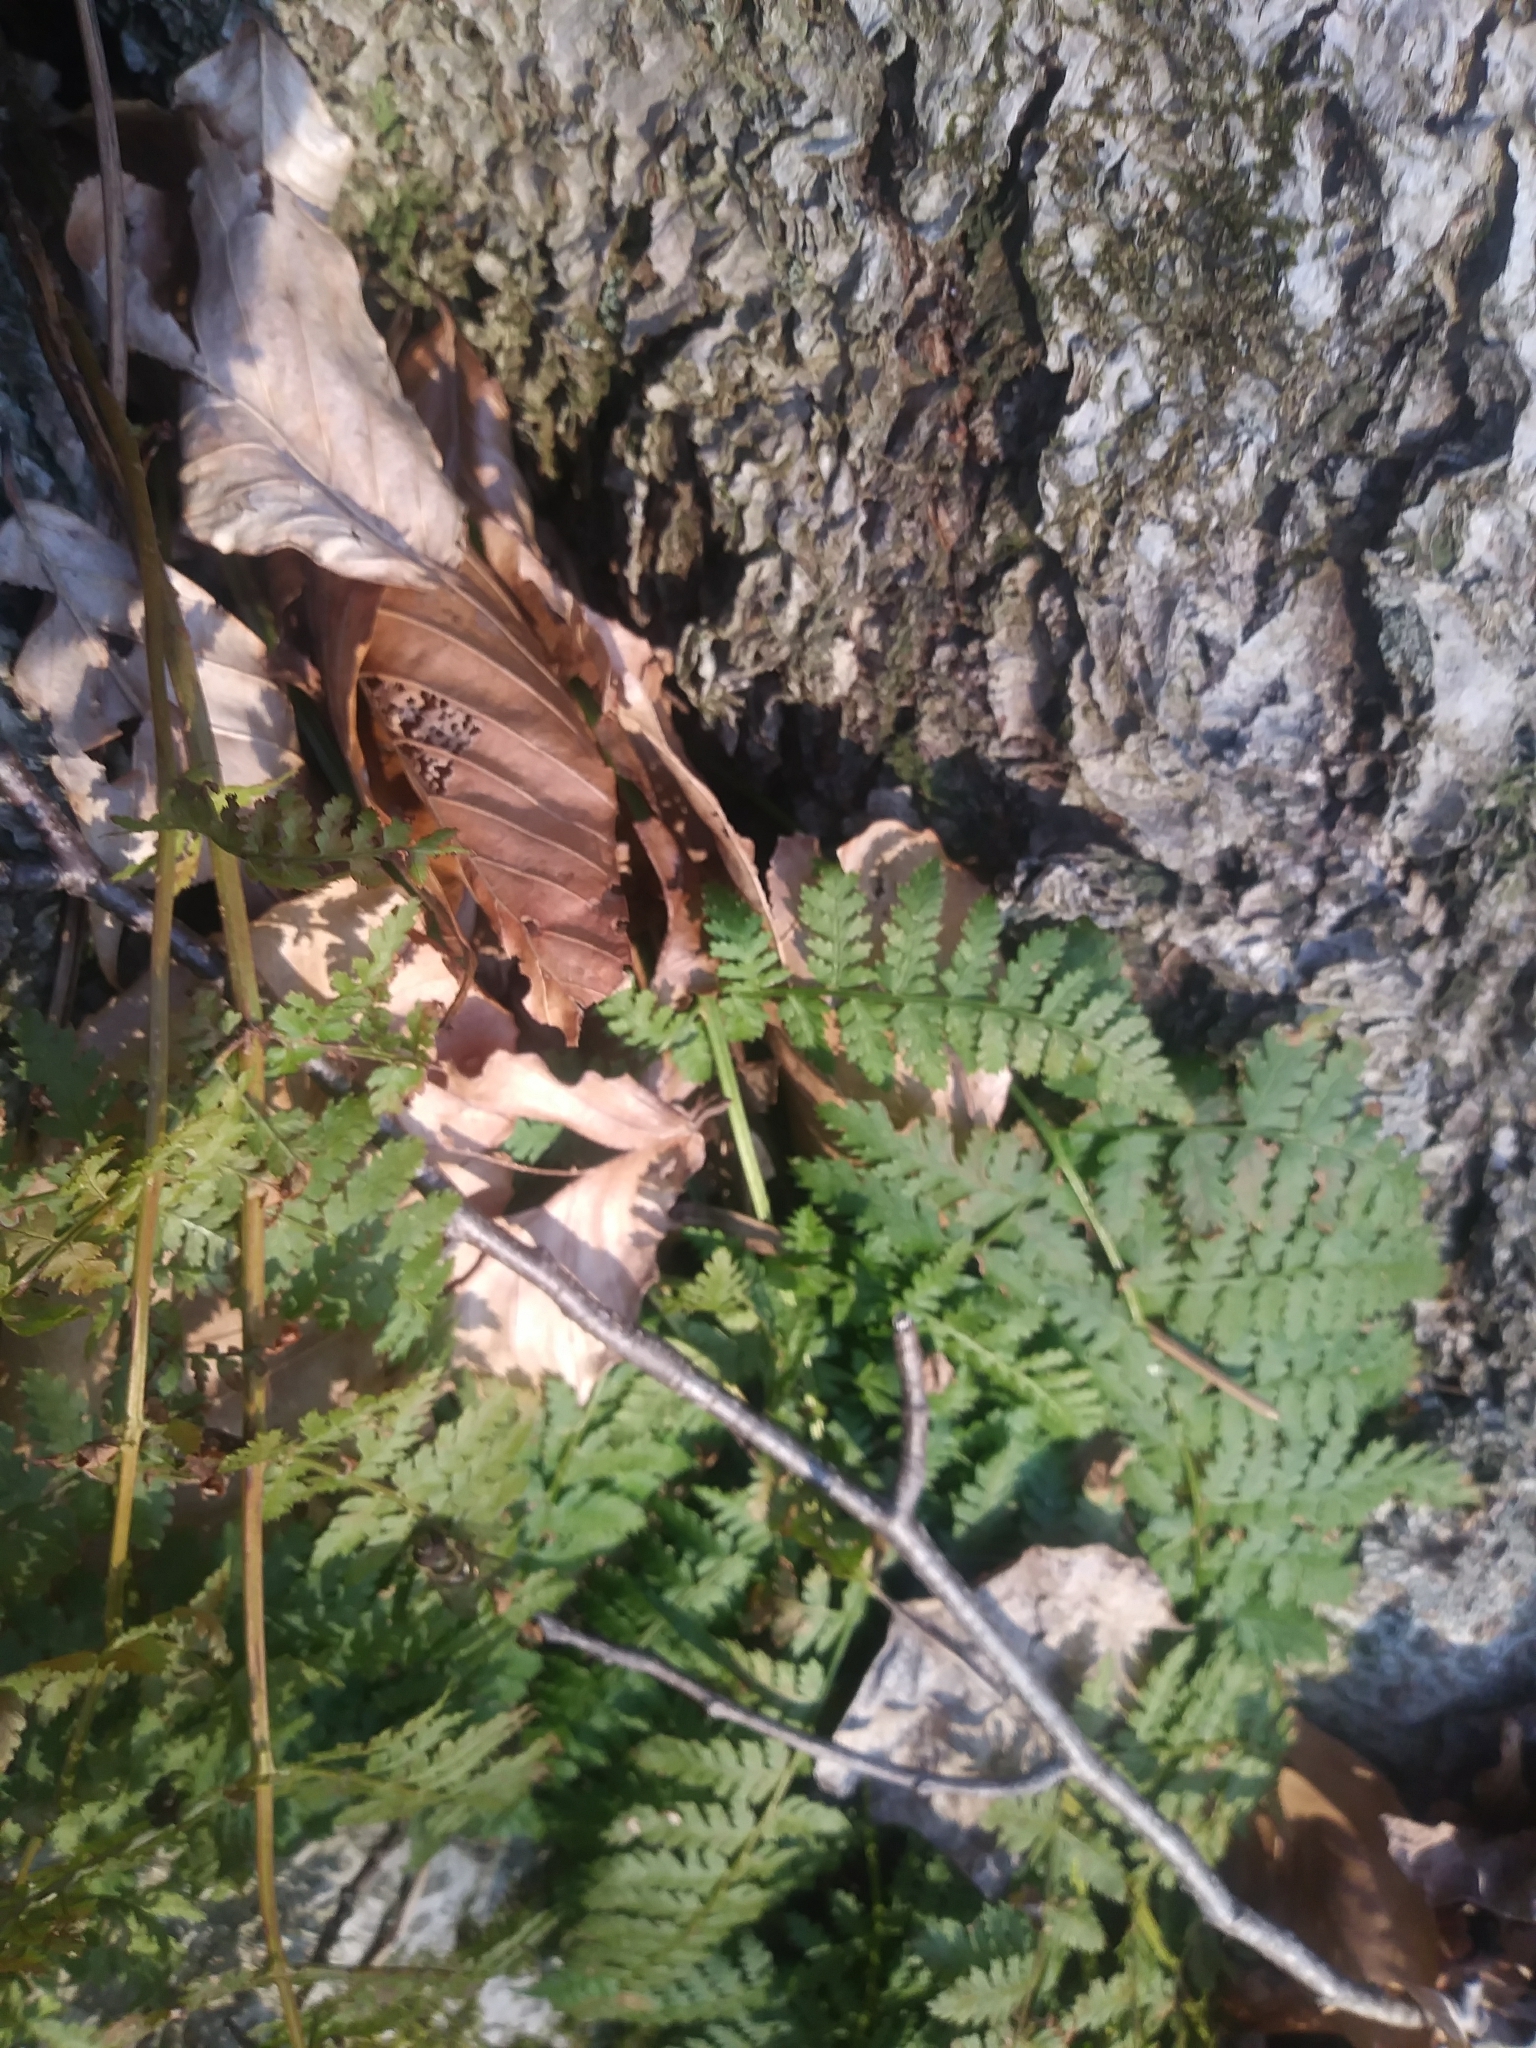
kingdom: Plantae
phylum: Tracheophyta
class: Polypodiopsida
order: Polypodiales
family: Dryopteridaceae
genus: Dryopteris
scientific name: Dryopteris intermedia
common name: Evergreen wood fern
